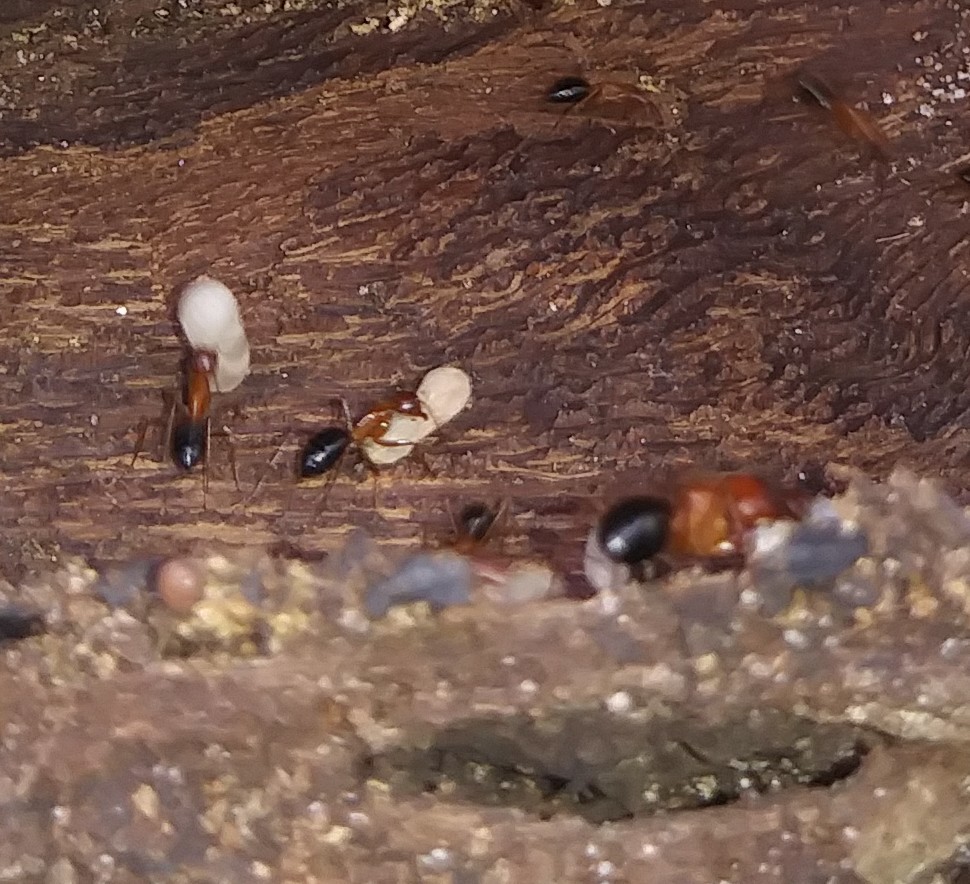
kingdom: Animalia
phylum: Arthropoda
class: Insecta
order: Hymenoptera
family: Formicidae
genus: Camponotus
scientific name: Camponotus floridanus
